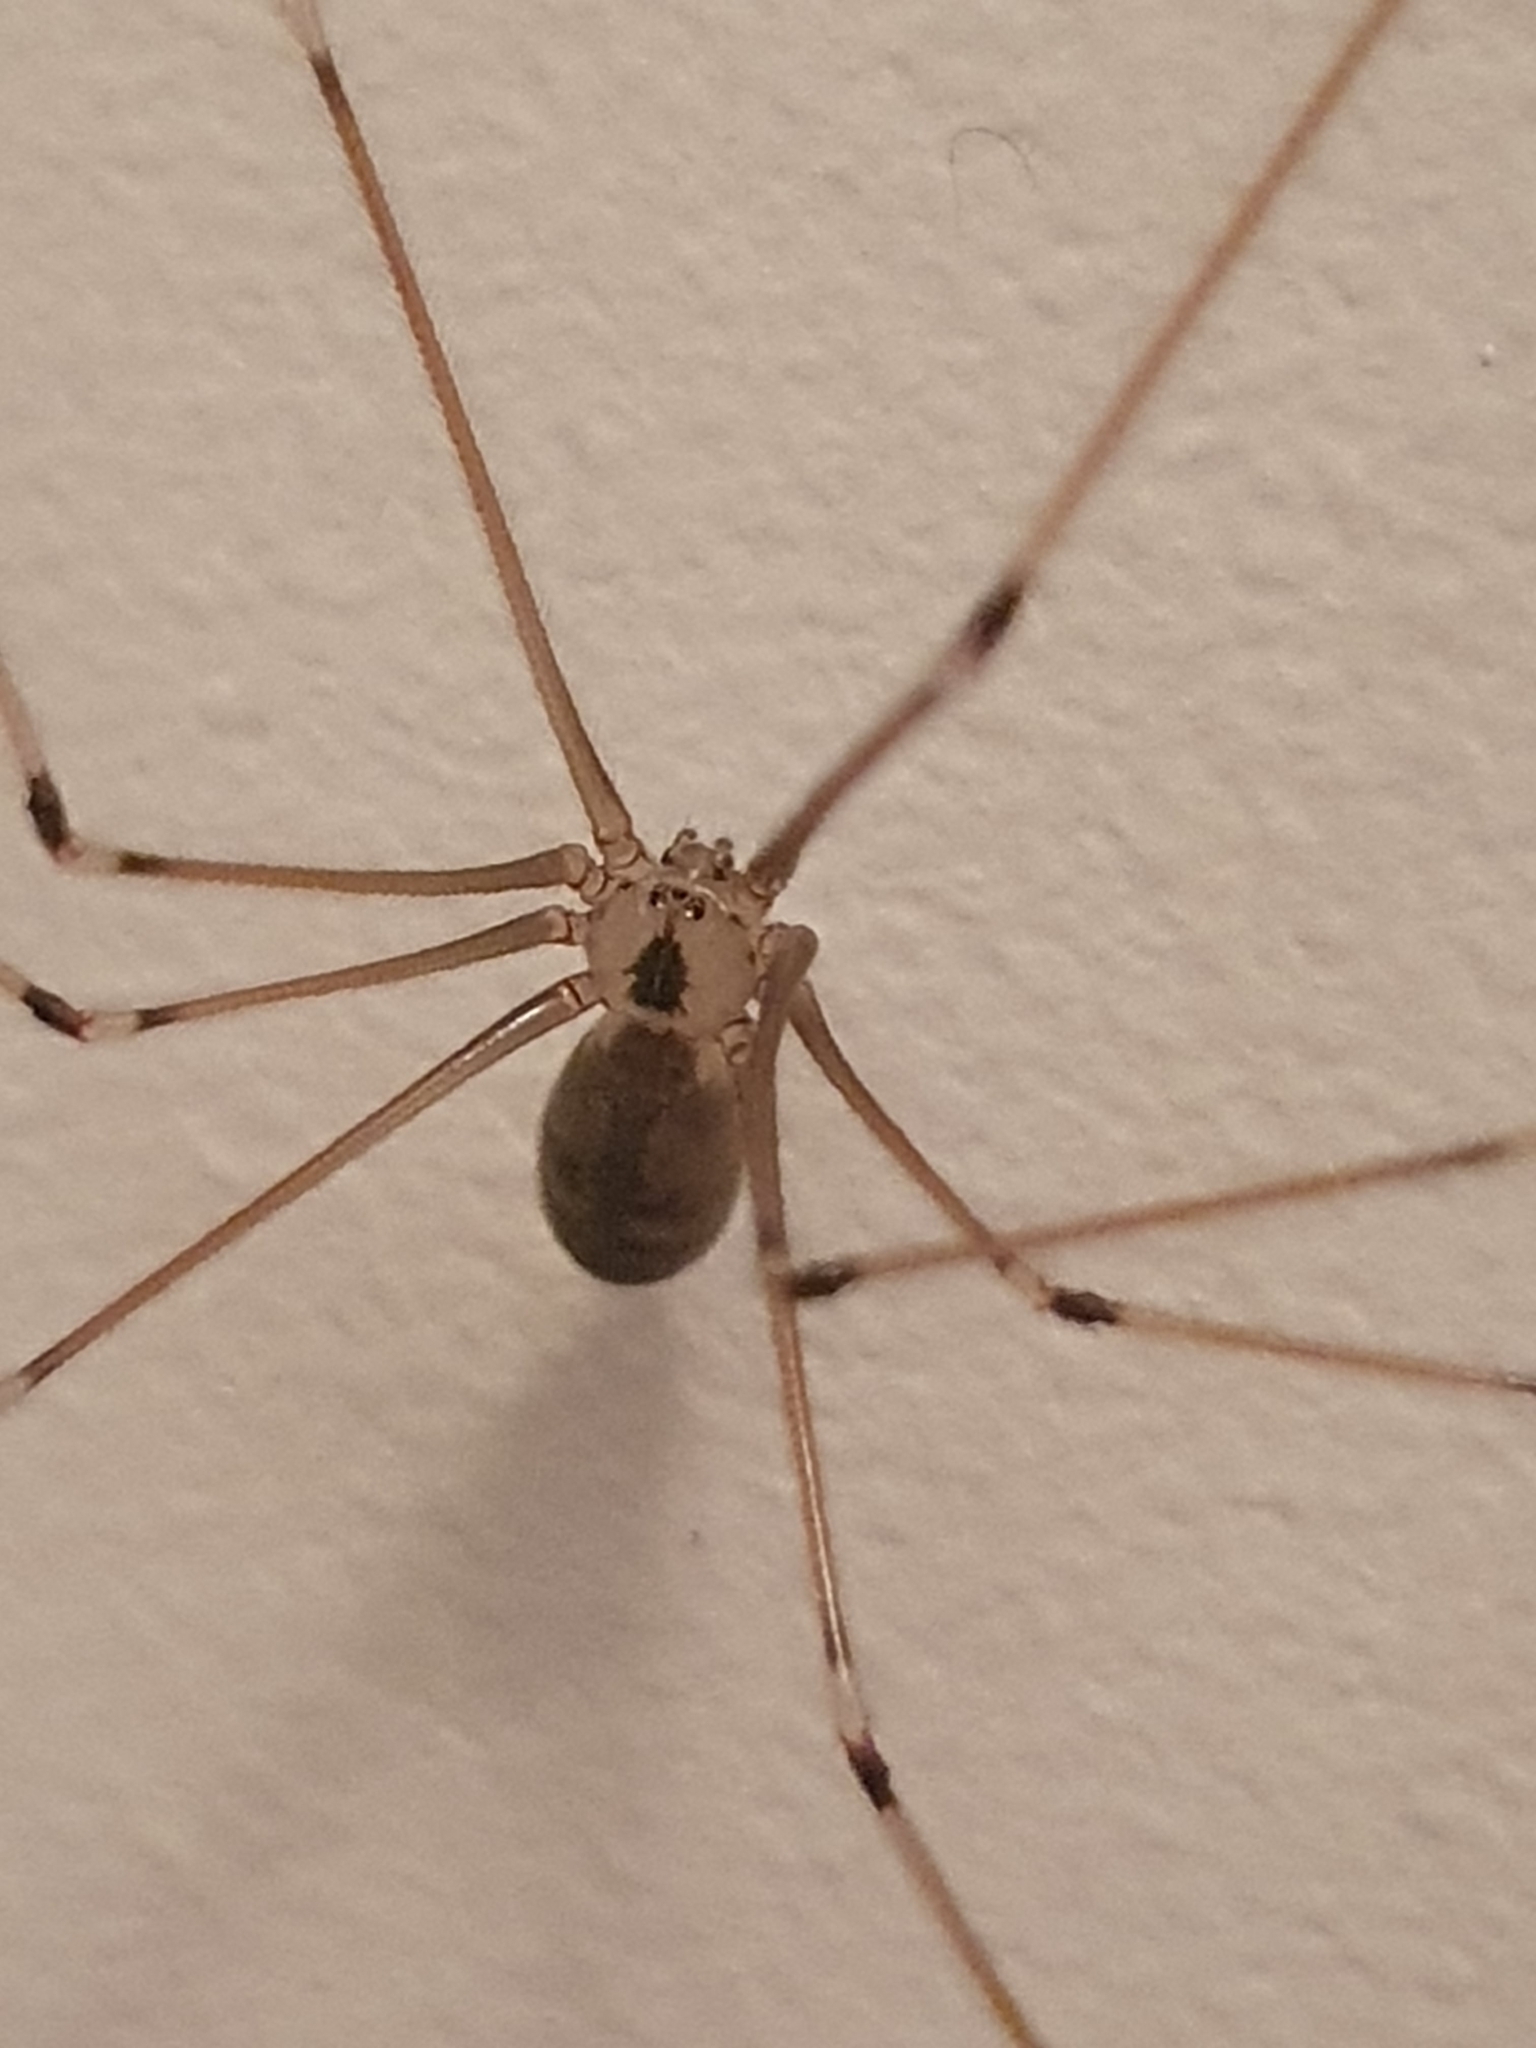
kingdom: Animalia
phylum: Arthropoda
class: Arachnida
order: Araneae
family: Pholcidae
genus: Pholcus
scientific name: Pholcus phalangioides
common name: Longbodied cellar spider
